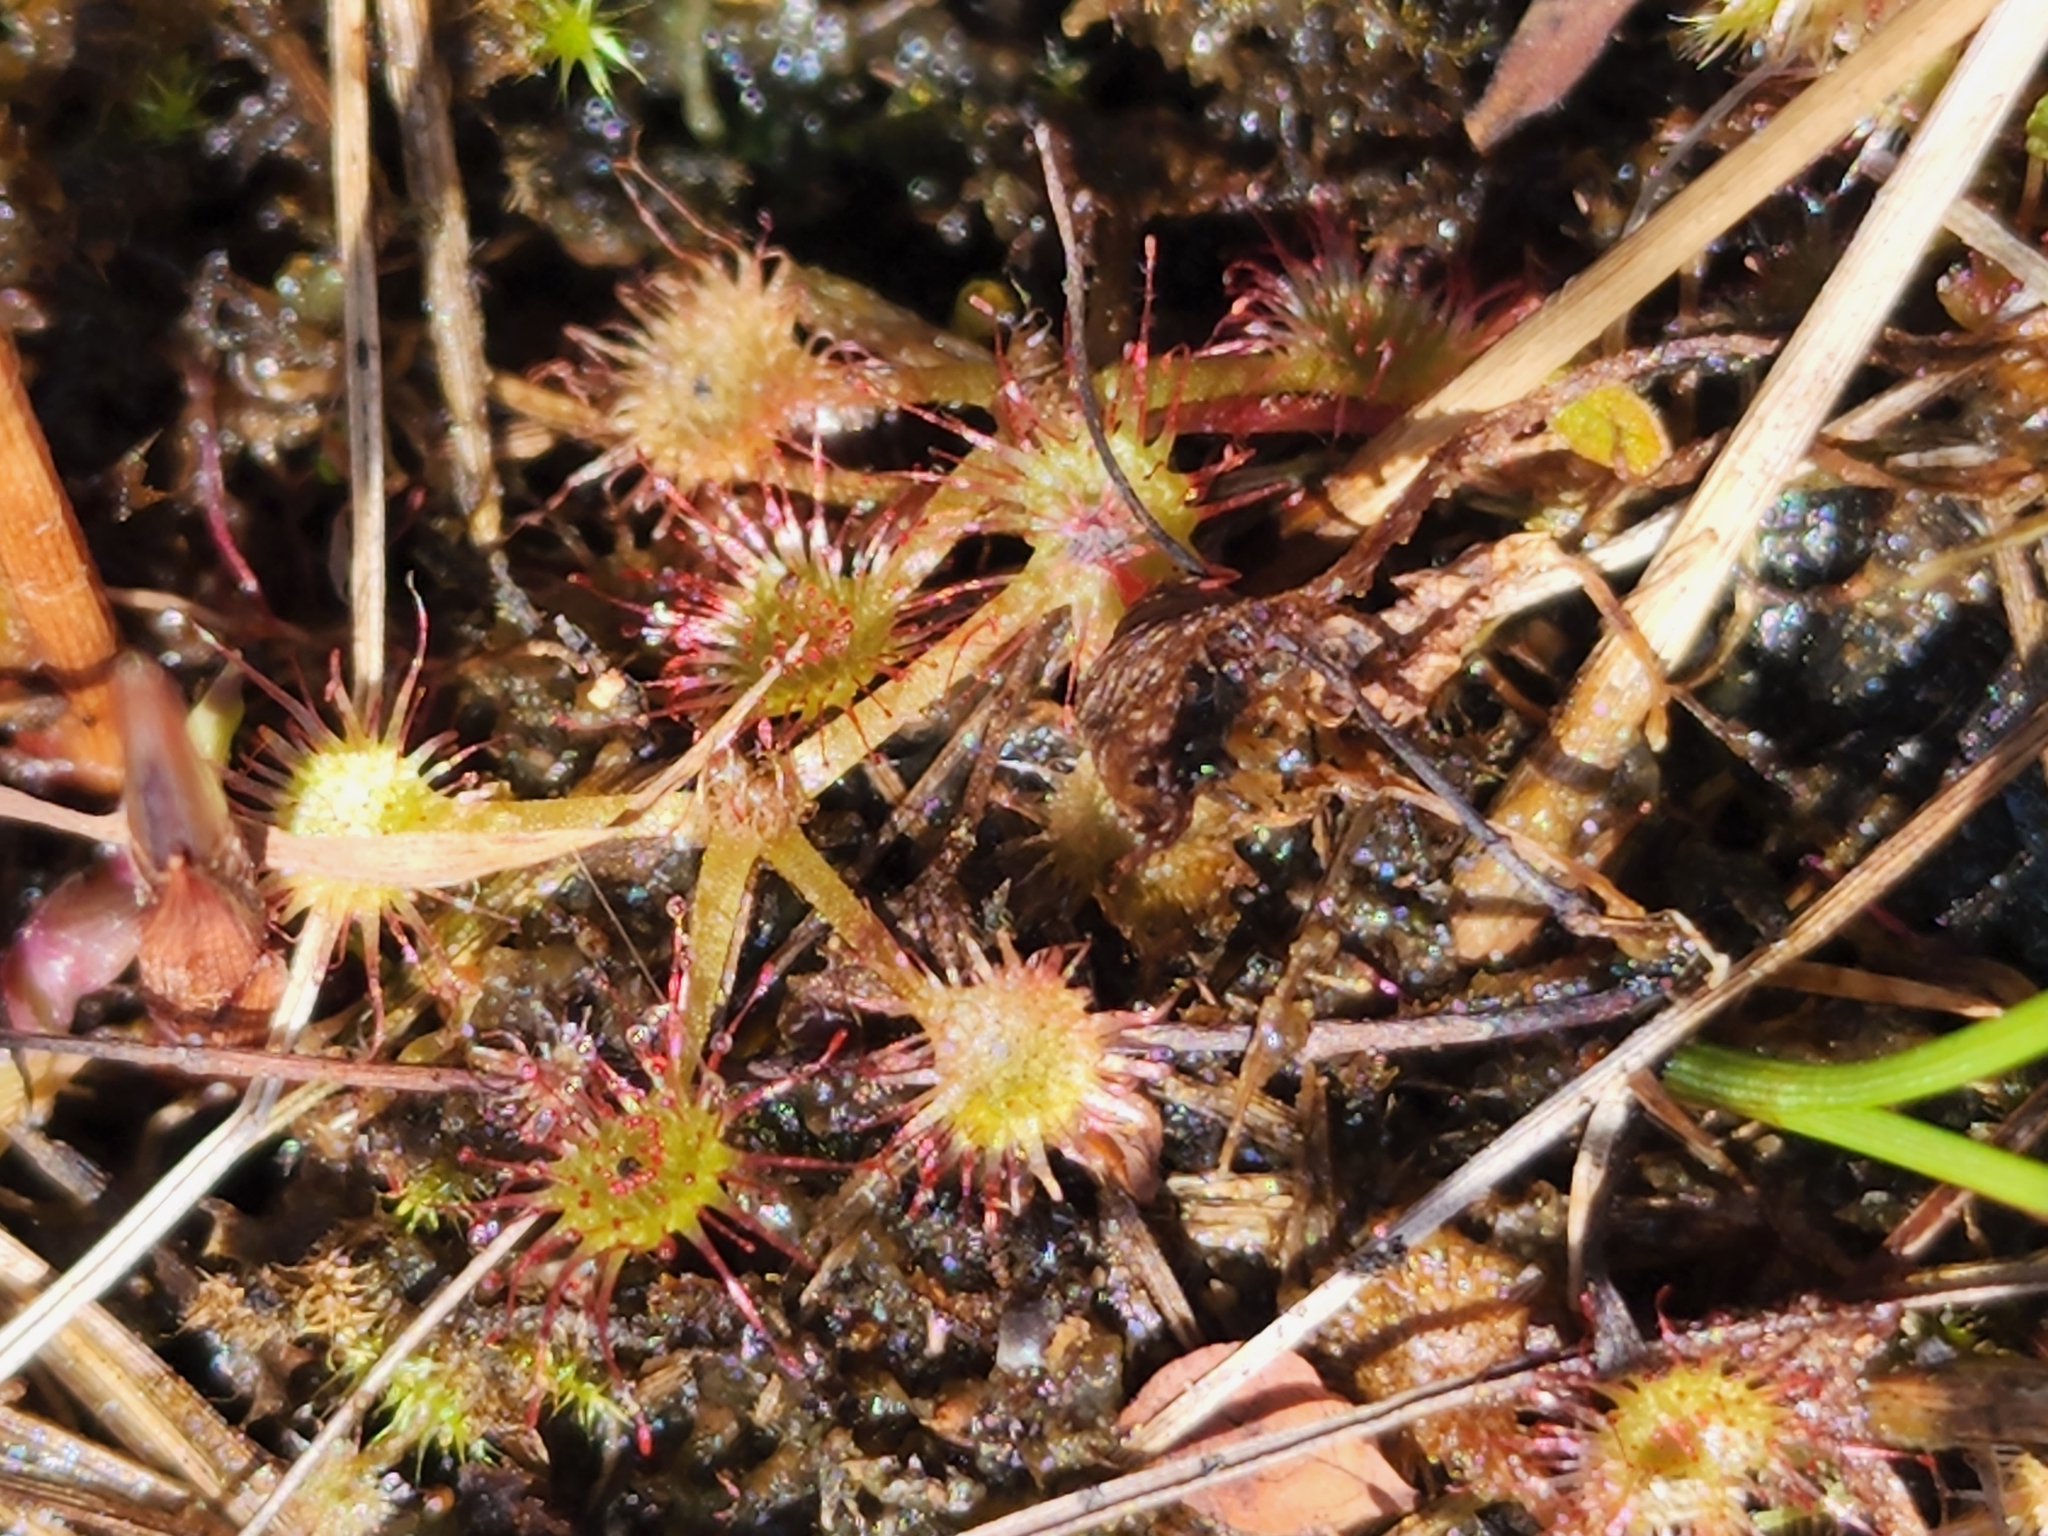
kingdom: Plantae
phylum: Tracheophyta
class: Magnoliopsida
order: Caryophyllales
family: Droseraceae
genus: Drosera
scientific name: Drosera rotundifolia
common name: Round-leaved sundew
